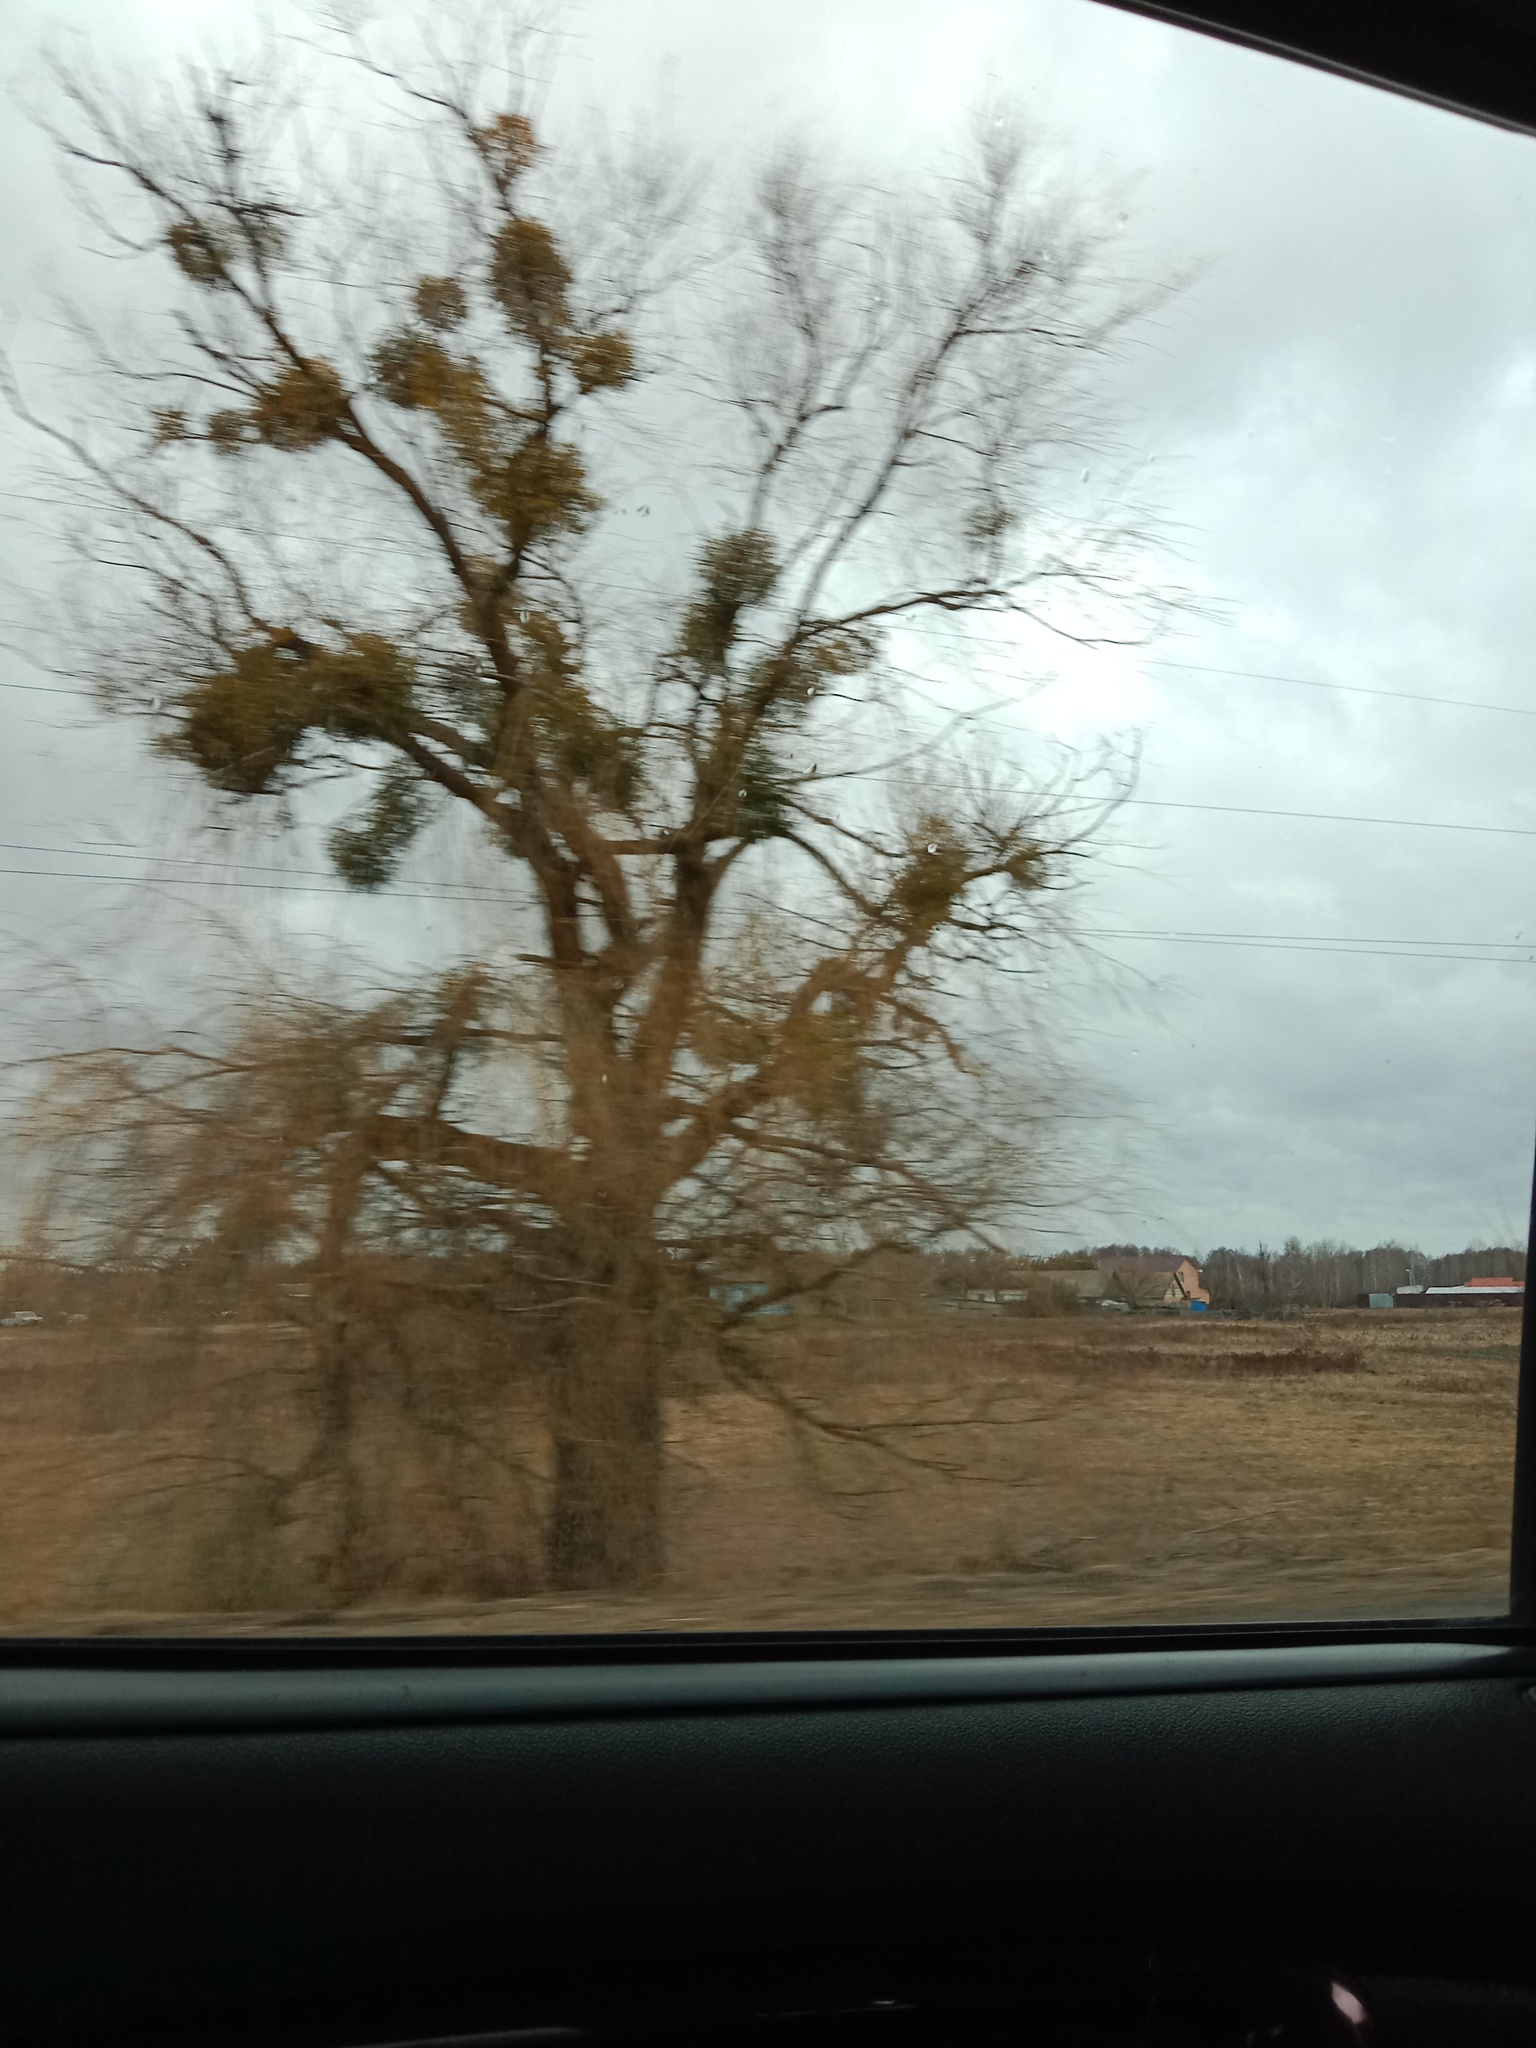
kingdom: Plantae
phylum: Tracheophyta
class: Magnoliopsida
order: Santalales
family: Viscaceae
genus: Viscum
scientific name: Viscum album
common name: Mistletoe
